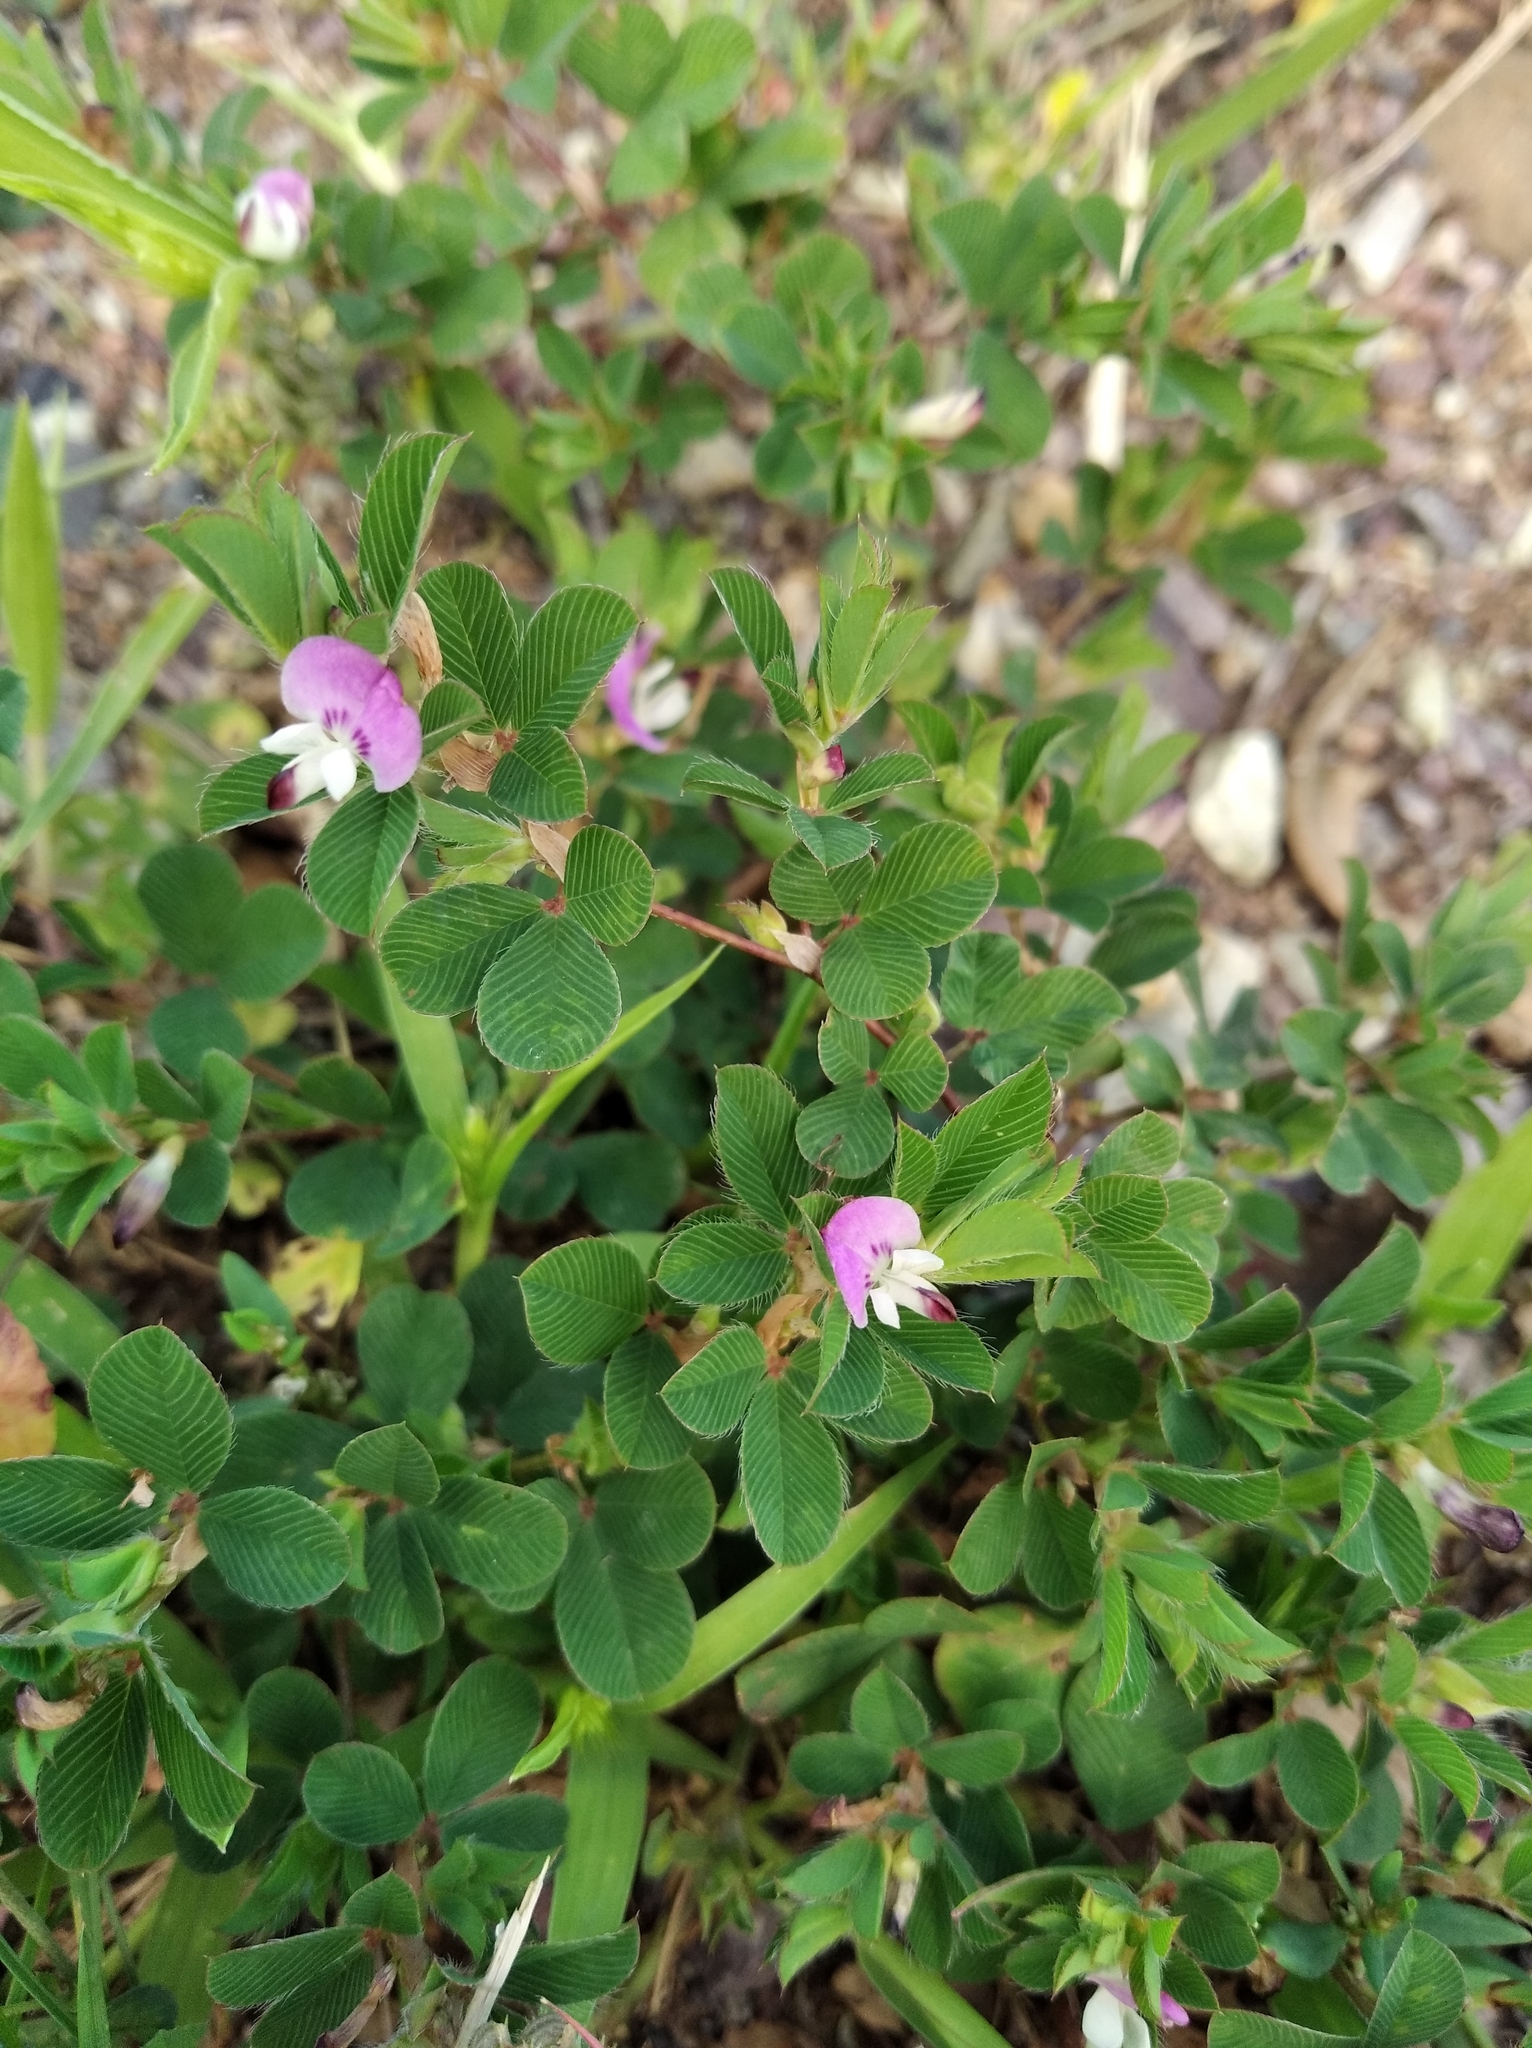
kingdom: Plantae
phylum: Tracheophyta
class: Magnoliopsida
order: Fabales
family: Fabaceae
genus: Kummerowia
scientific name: Kummerowia stipulacea
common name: Korean clover
